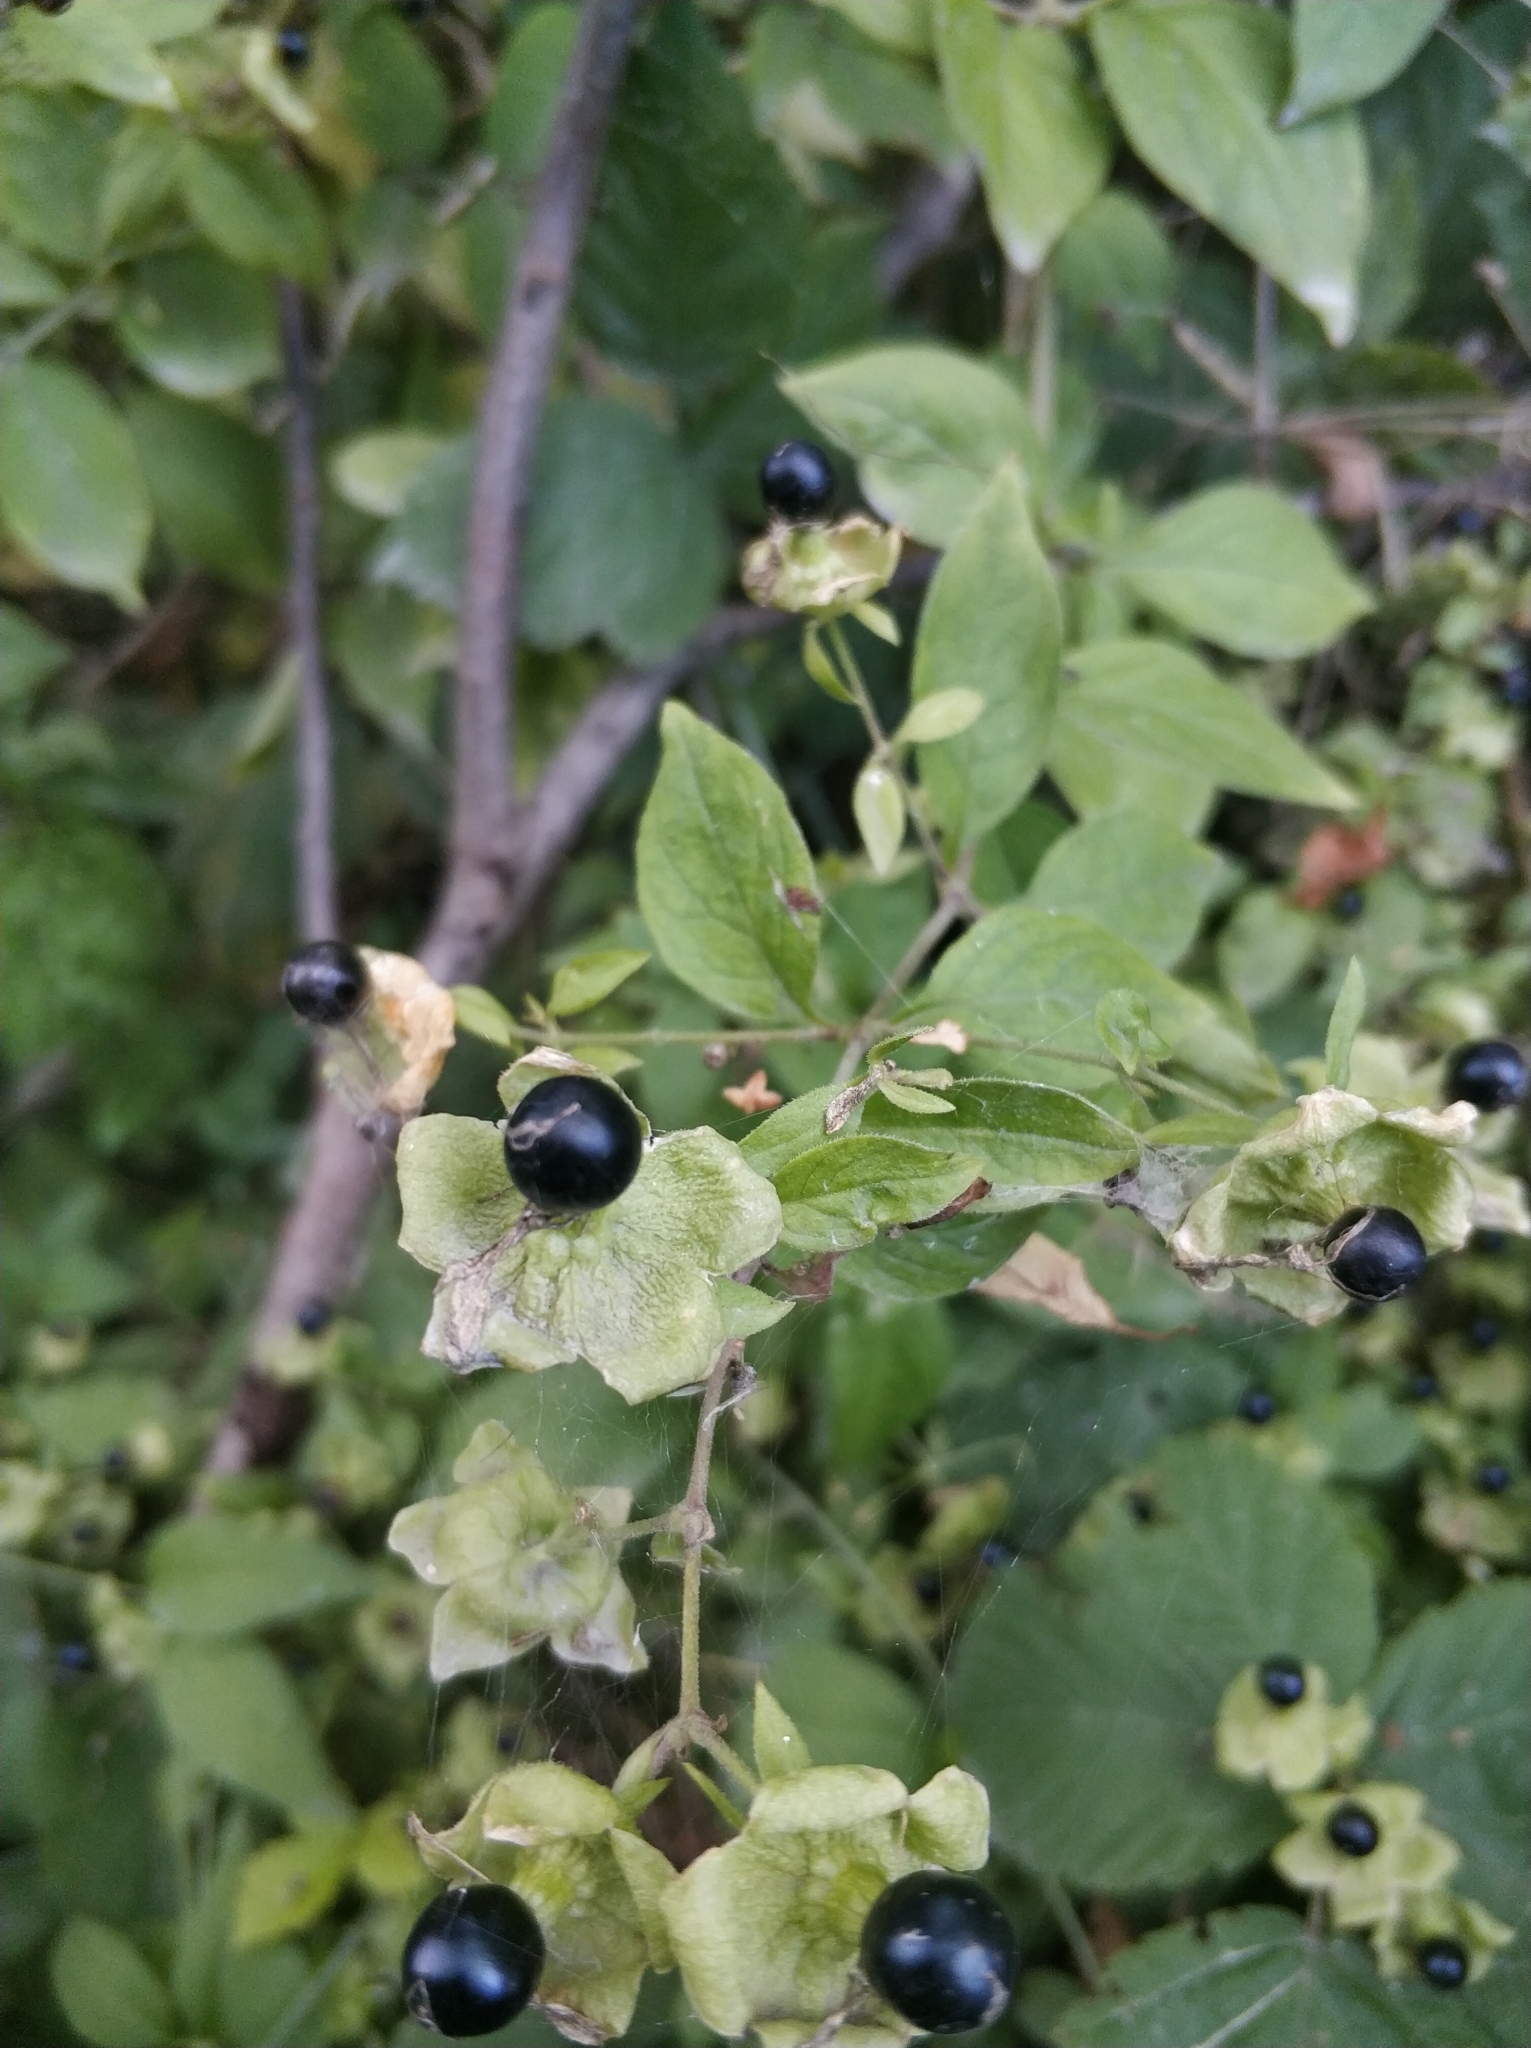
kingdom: Plantae
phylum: Tracheophyta
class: Magnoliopsida
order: Caryophyllales
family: Caryophyllaceae
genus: Silene
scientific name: Silene baccifera
